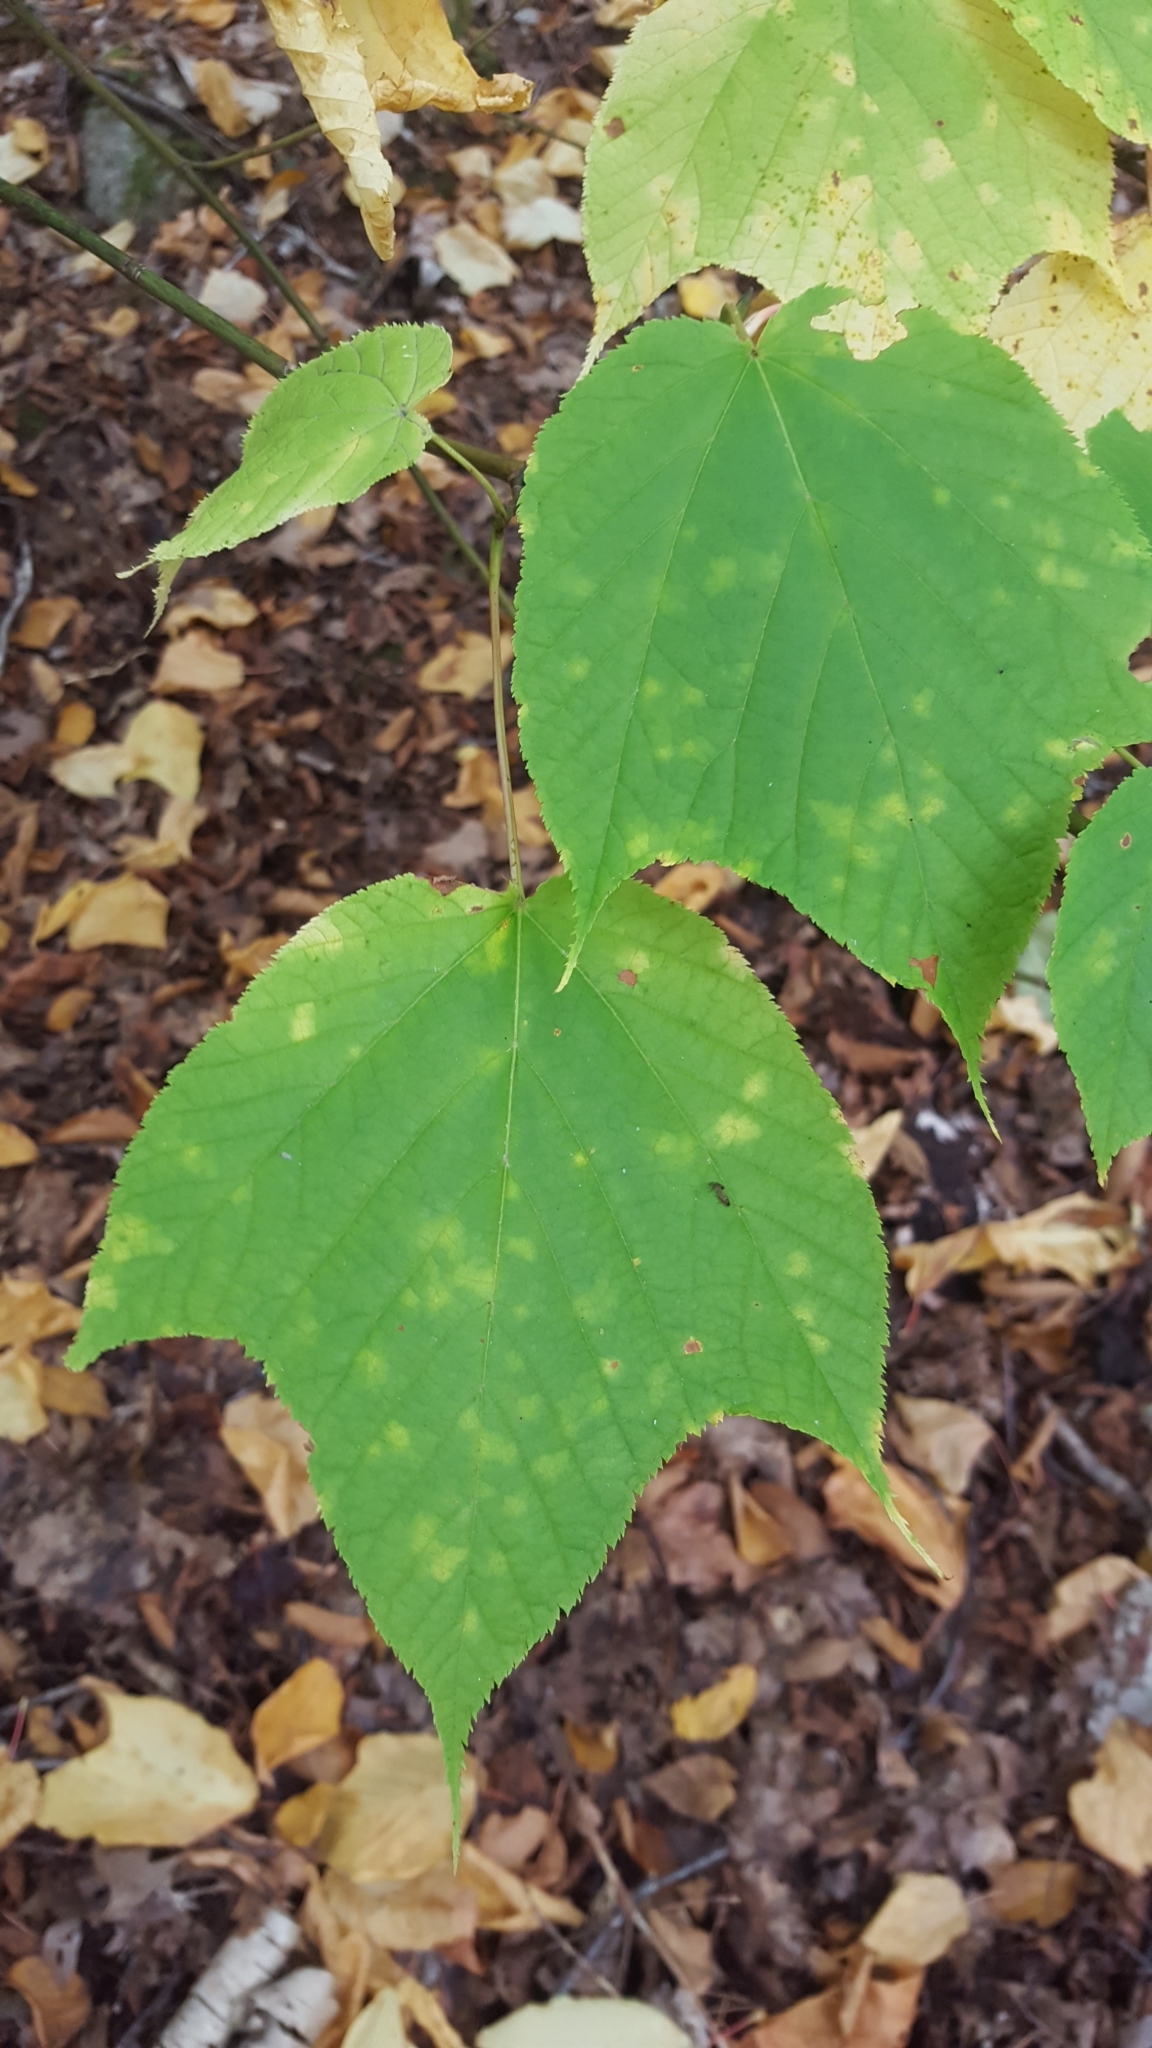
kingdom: Plantae
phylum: Tracheophyta
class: Magnoliopsida
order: Sapindales
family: Sapindaceae
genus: Acer
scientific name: Acer pensylvanicum
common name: Moosewood
